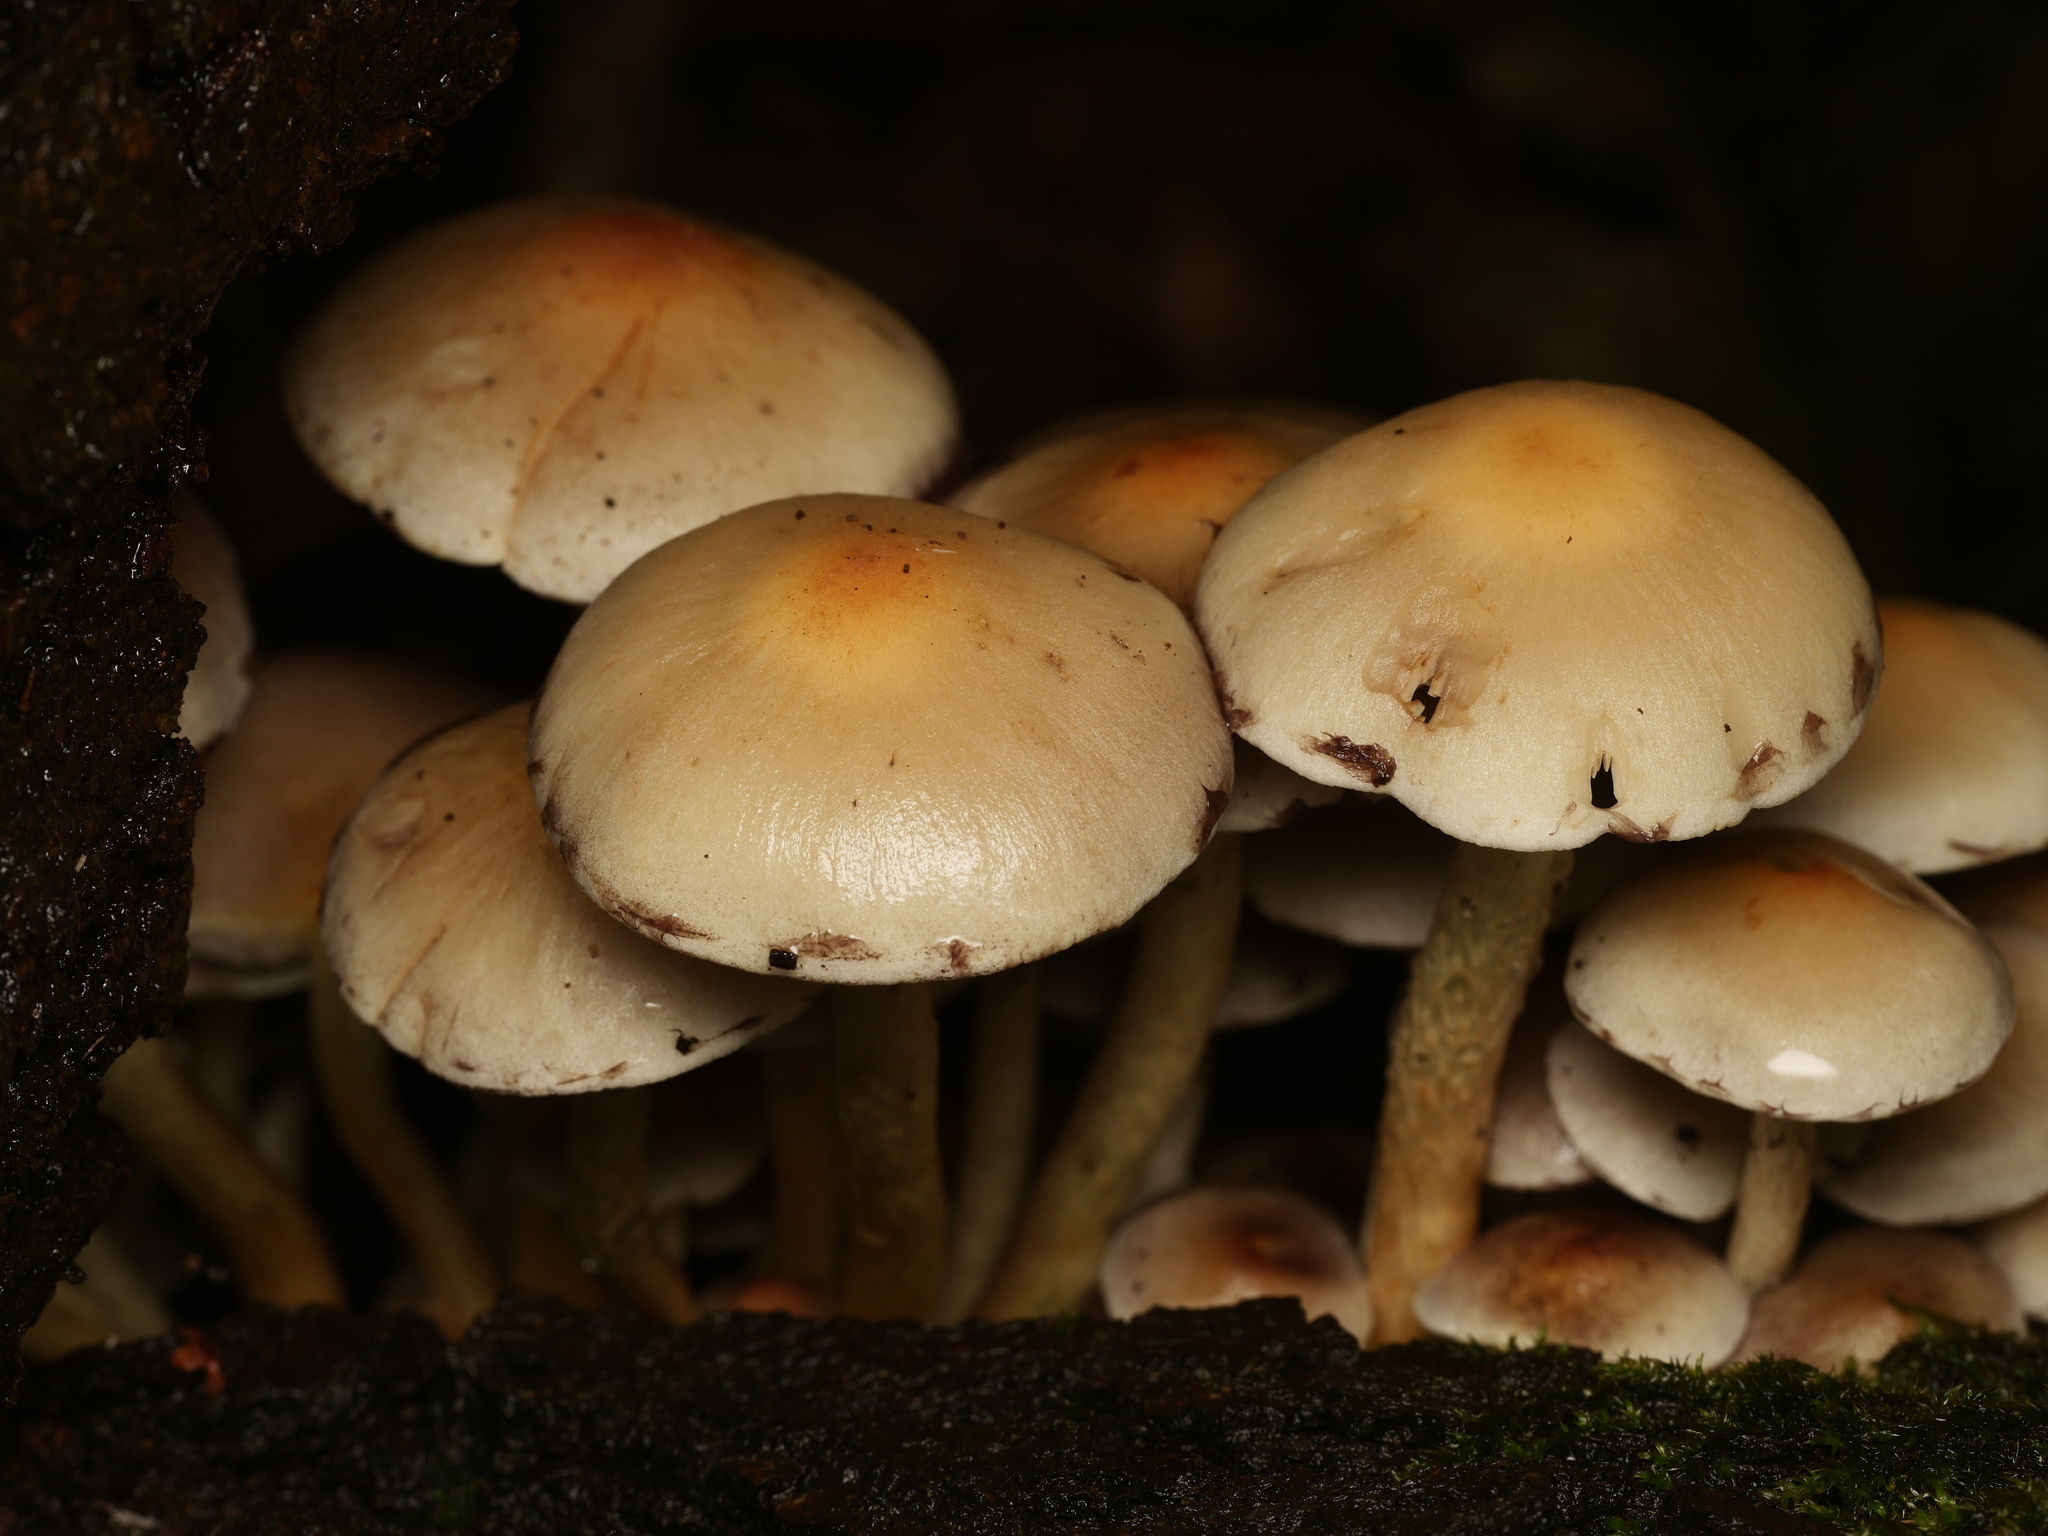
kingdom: Fungi
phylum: Basidiomycota
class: Agaricomycetes
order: Agaricales
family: Strophariaceae
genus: Hypholoma
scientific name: Hypholoma fasciculare
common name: Sulphur tuft
